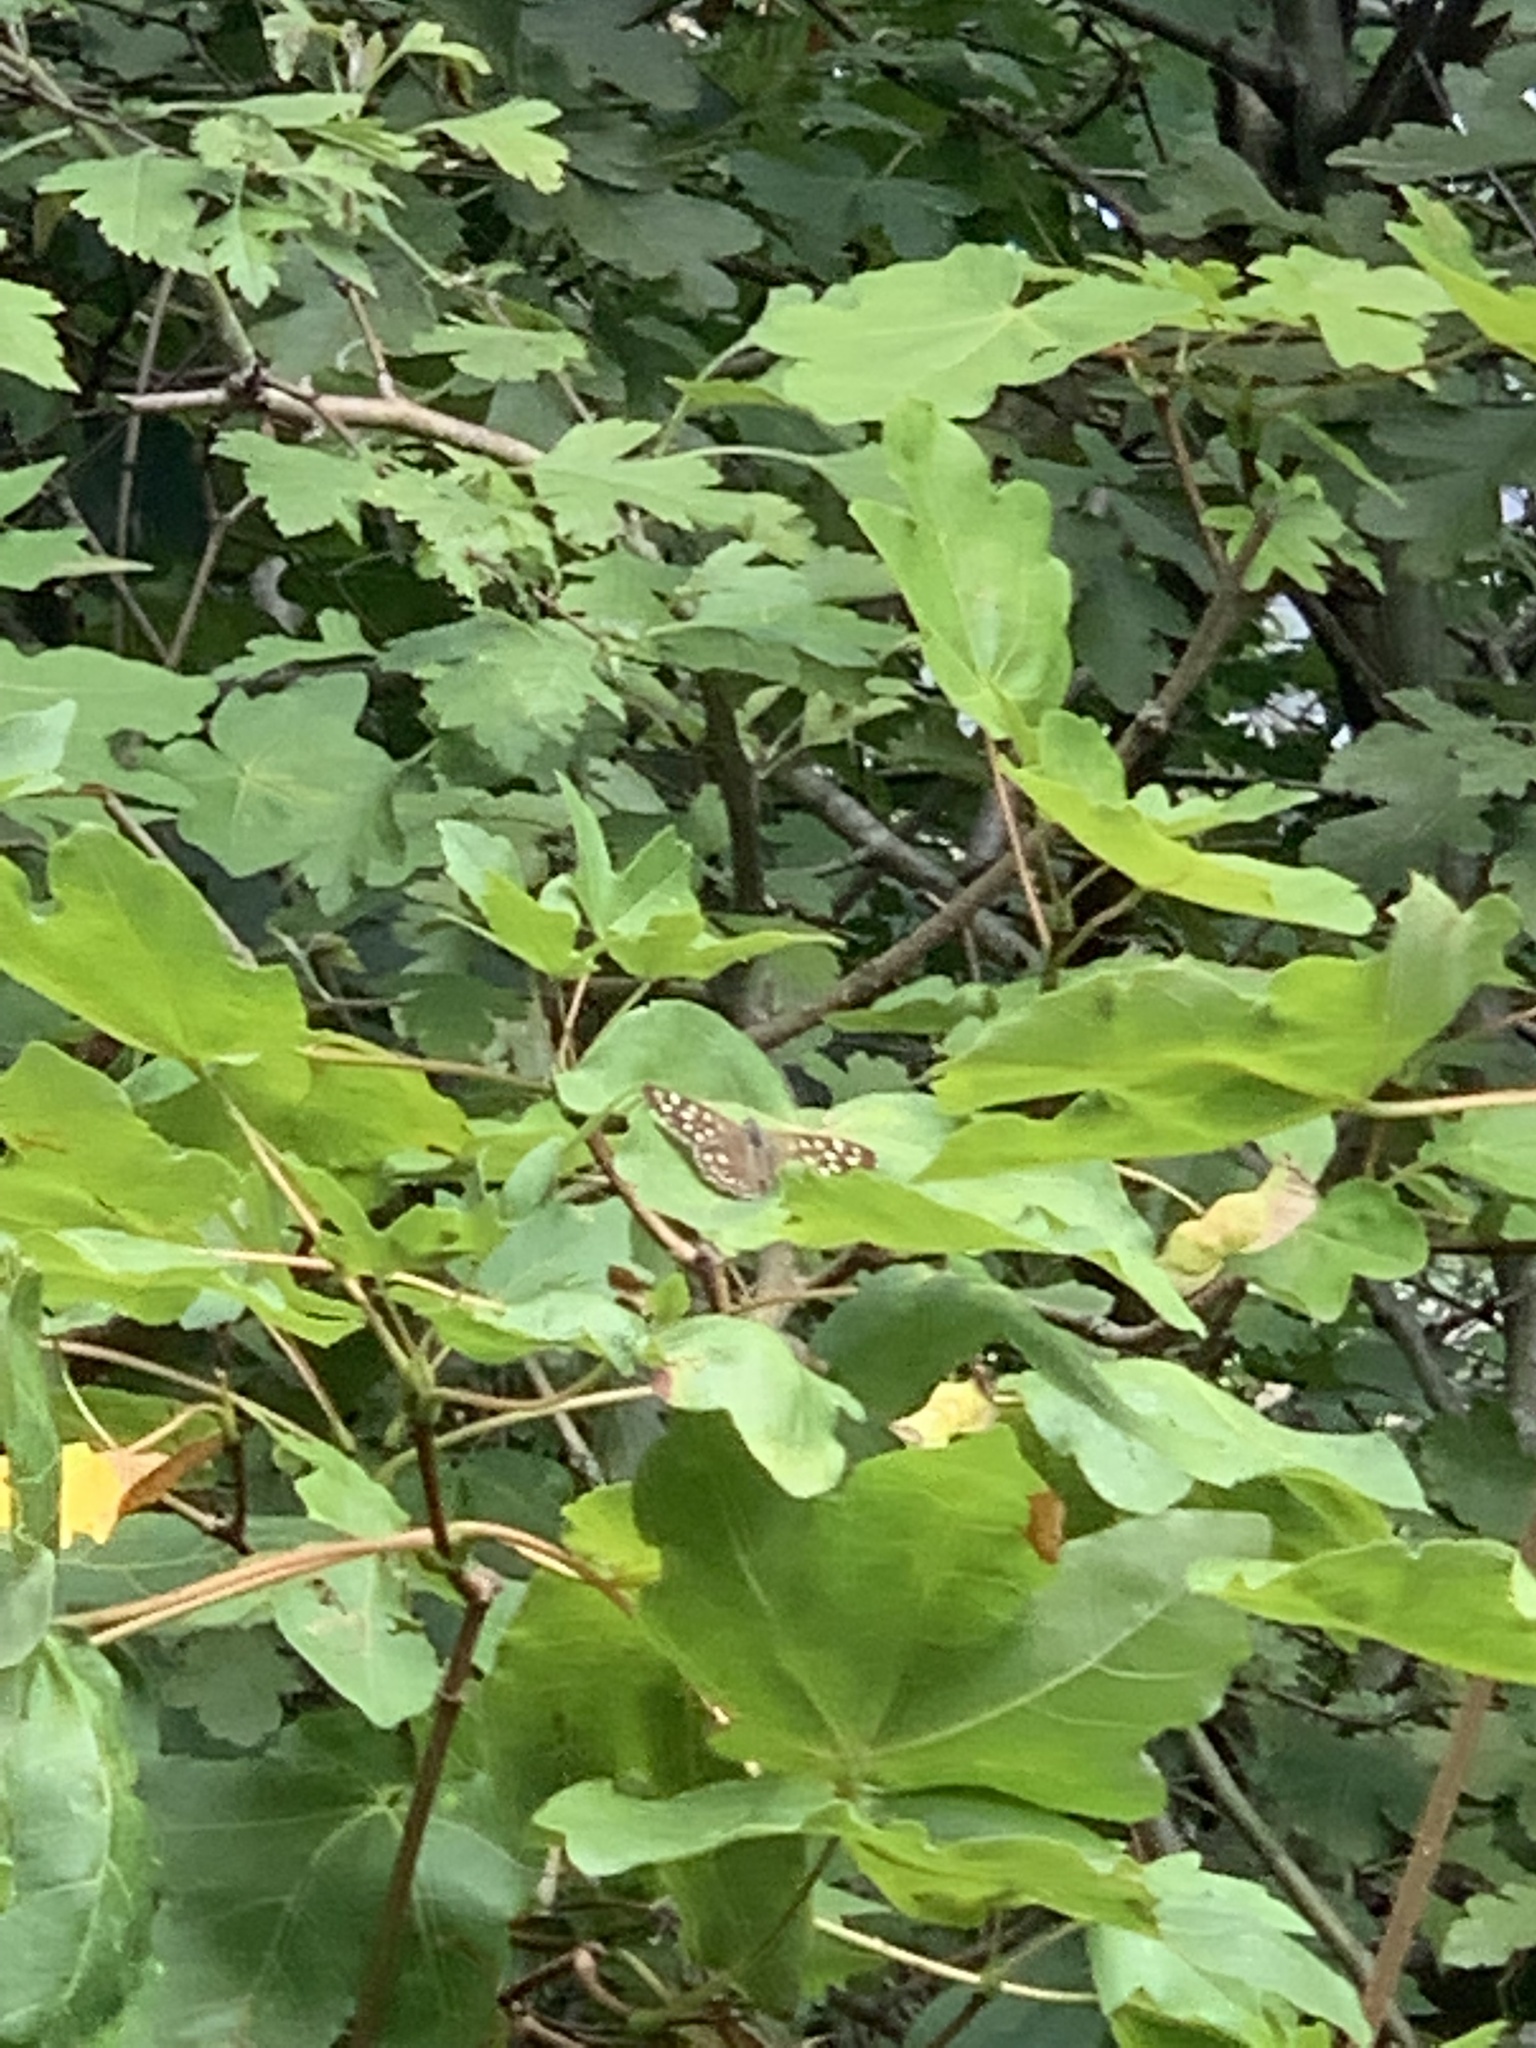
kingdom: Animalia
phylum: Arthropoda
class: Insecta
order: Lepidoptera
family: Nymphalidae
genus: Pararge
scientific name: Pararge aegeria
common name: Speckled wood
